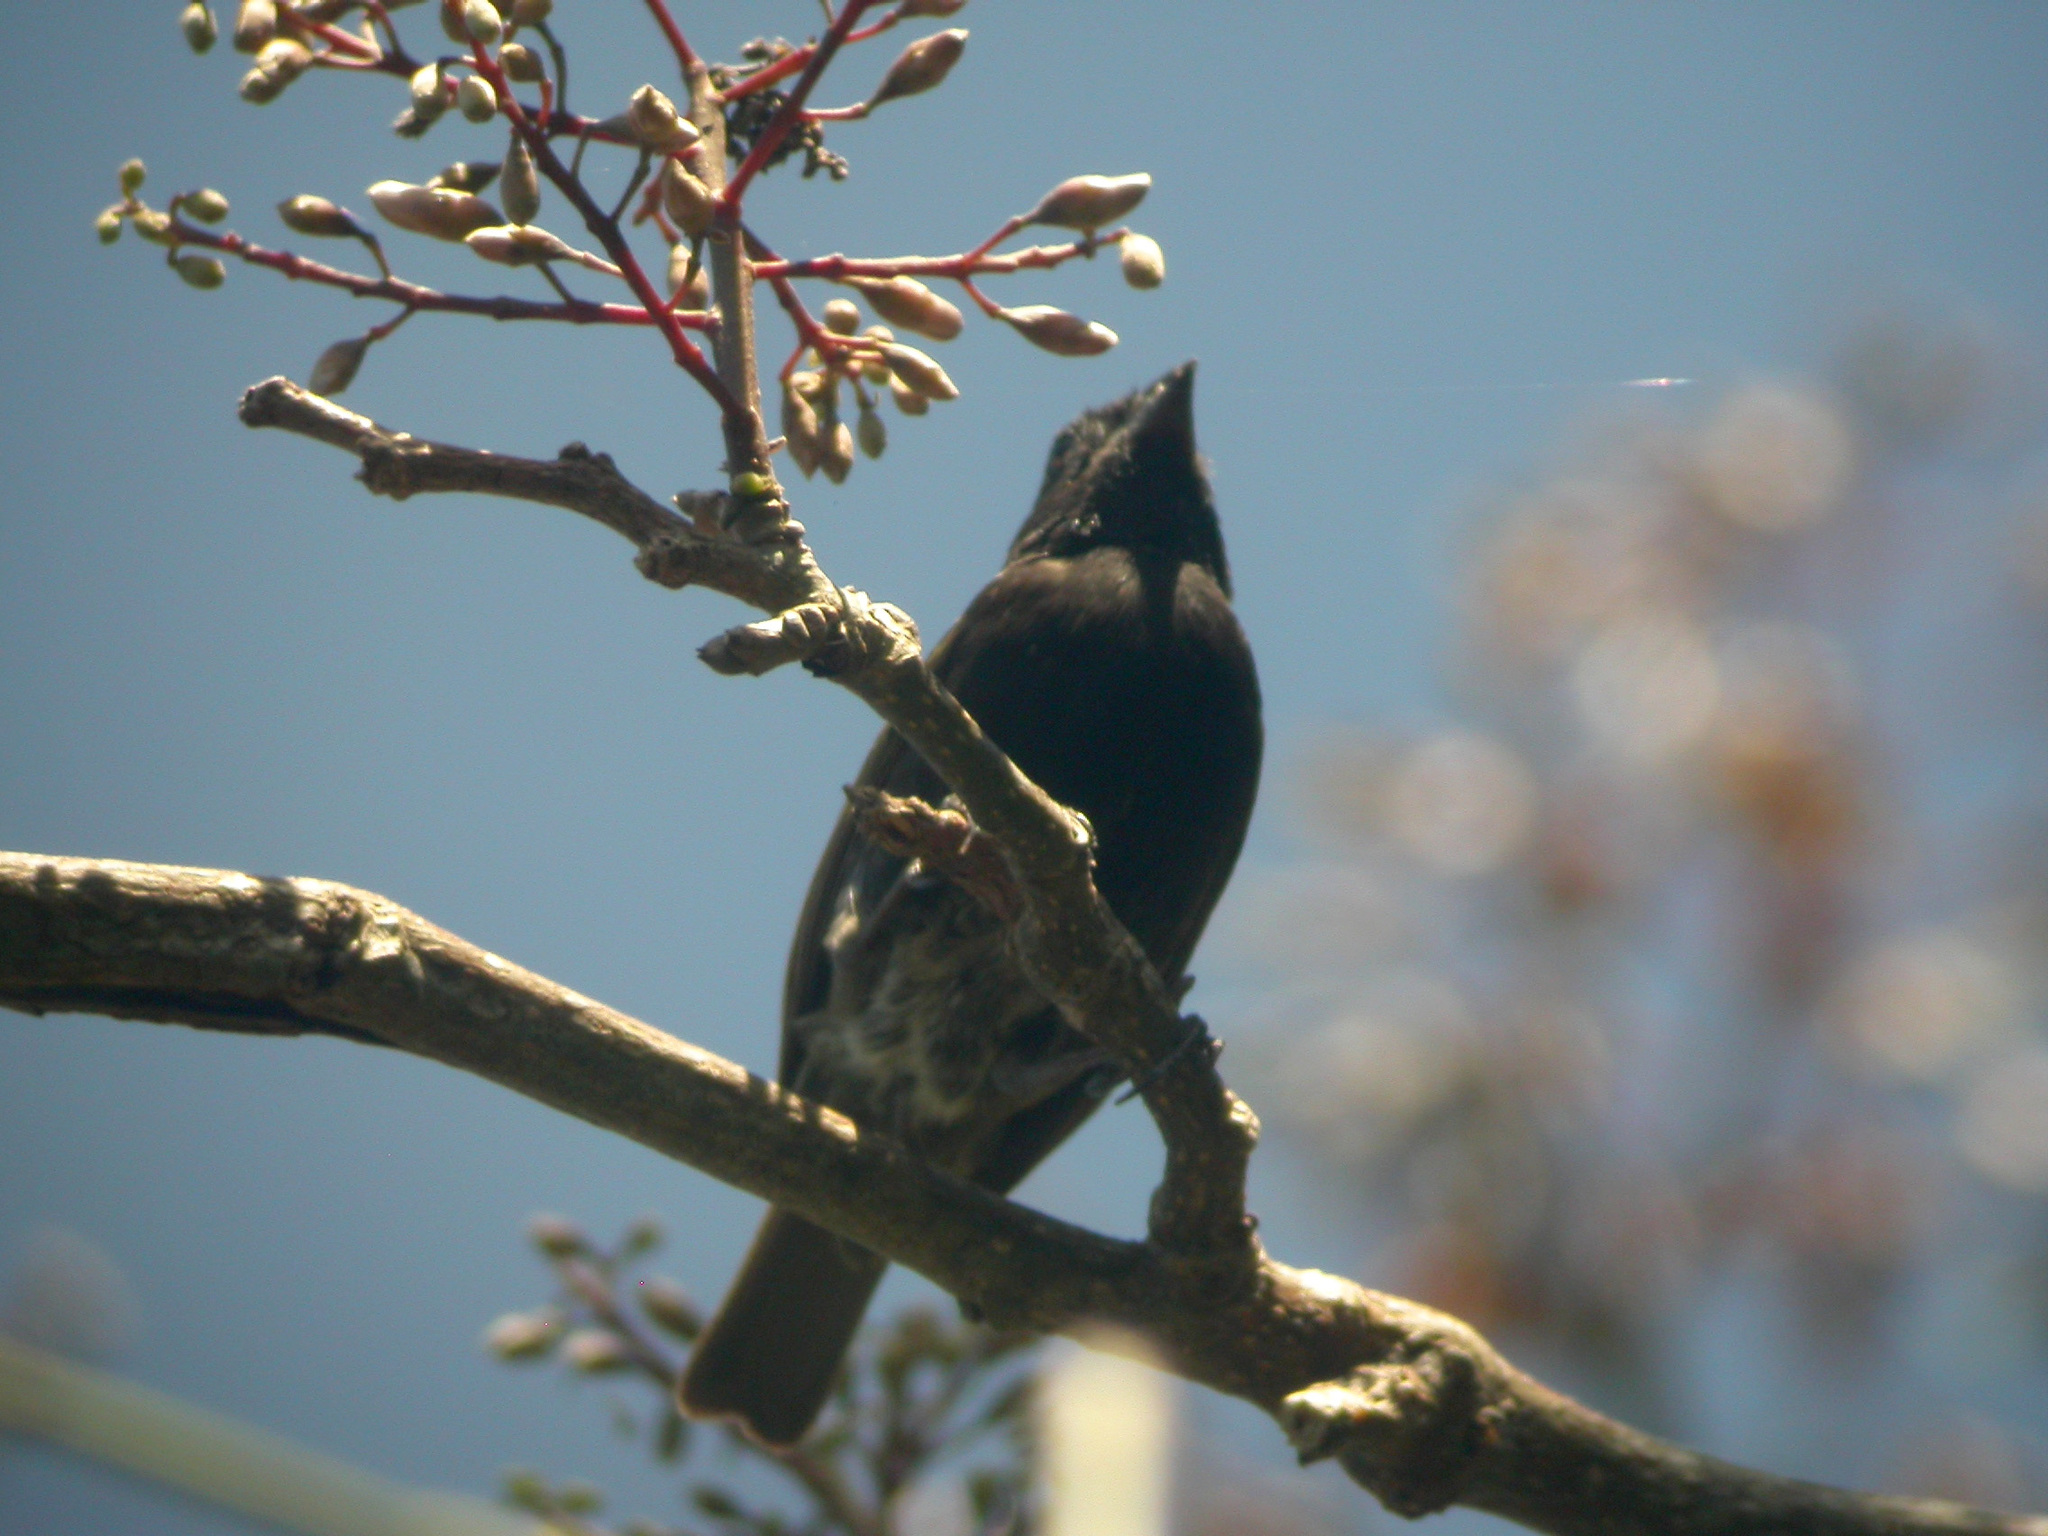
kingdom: Animalia
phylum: Chordata
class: Aves
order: Passeriformes
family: Thraupidae
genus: Melanospiza
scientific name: Melanospiza bicolor
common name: Black-faced grassquit
